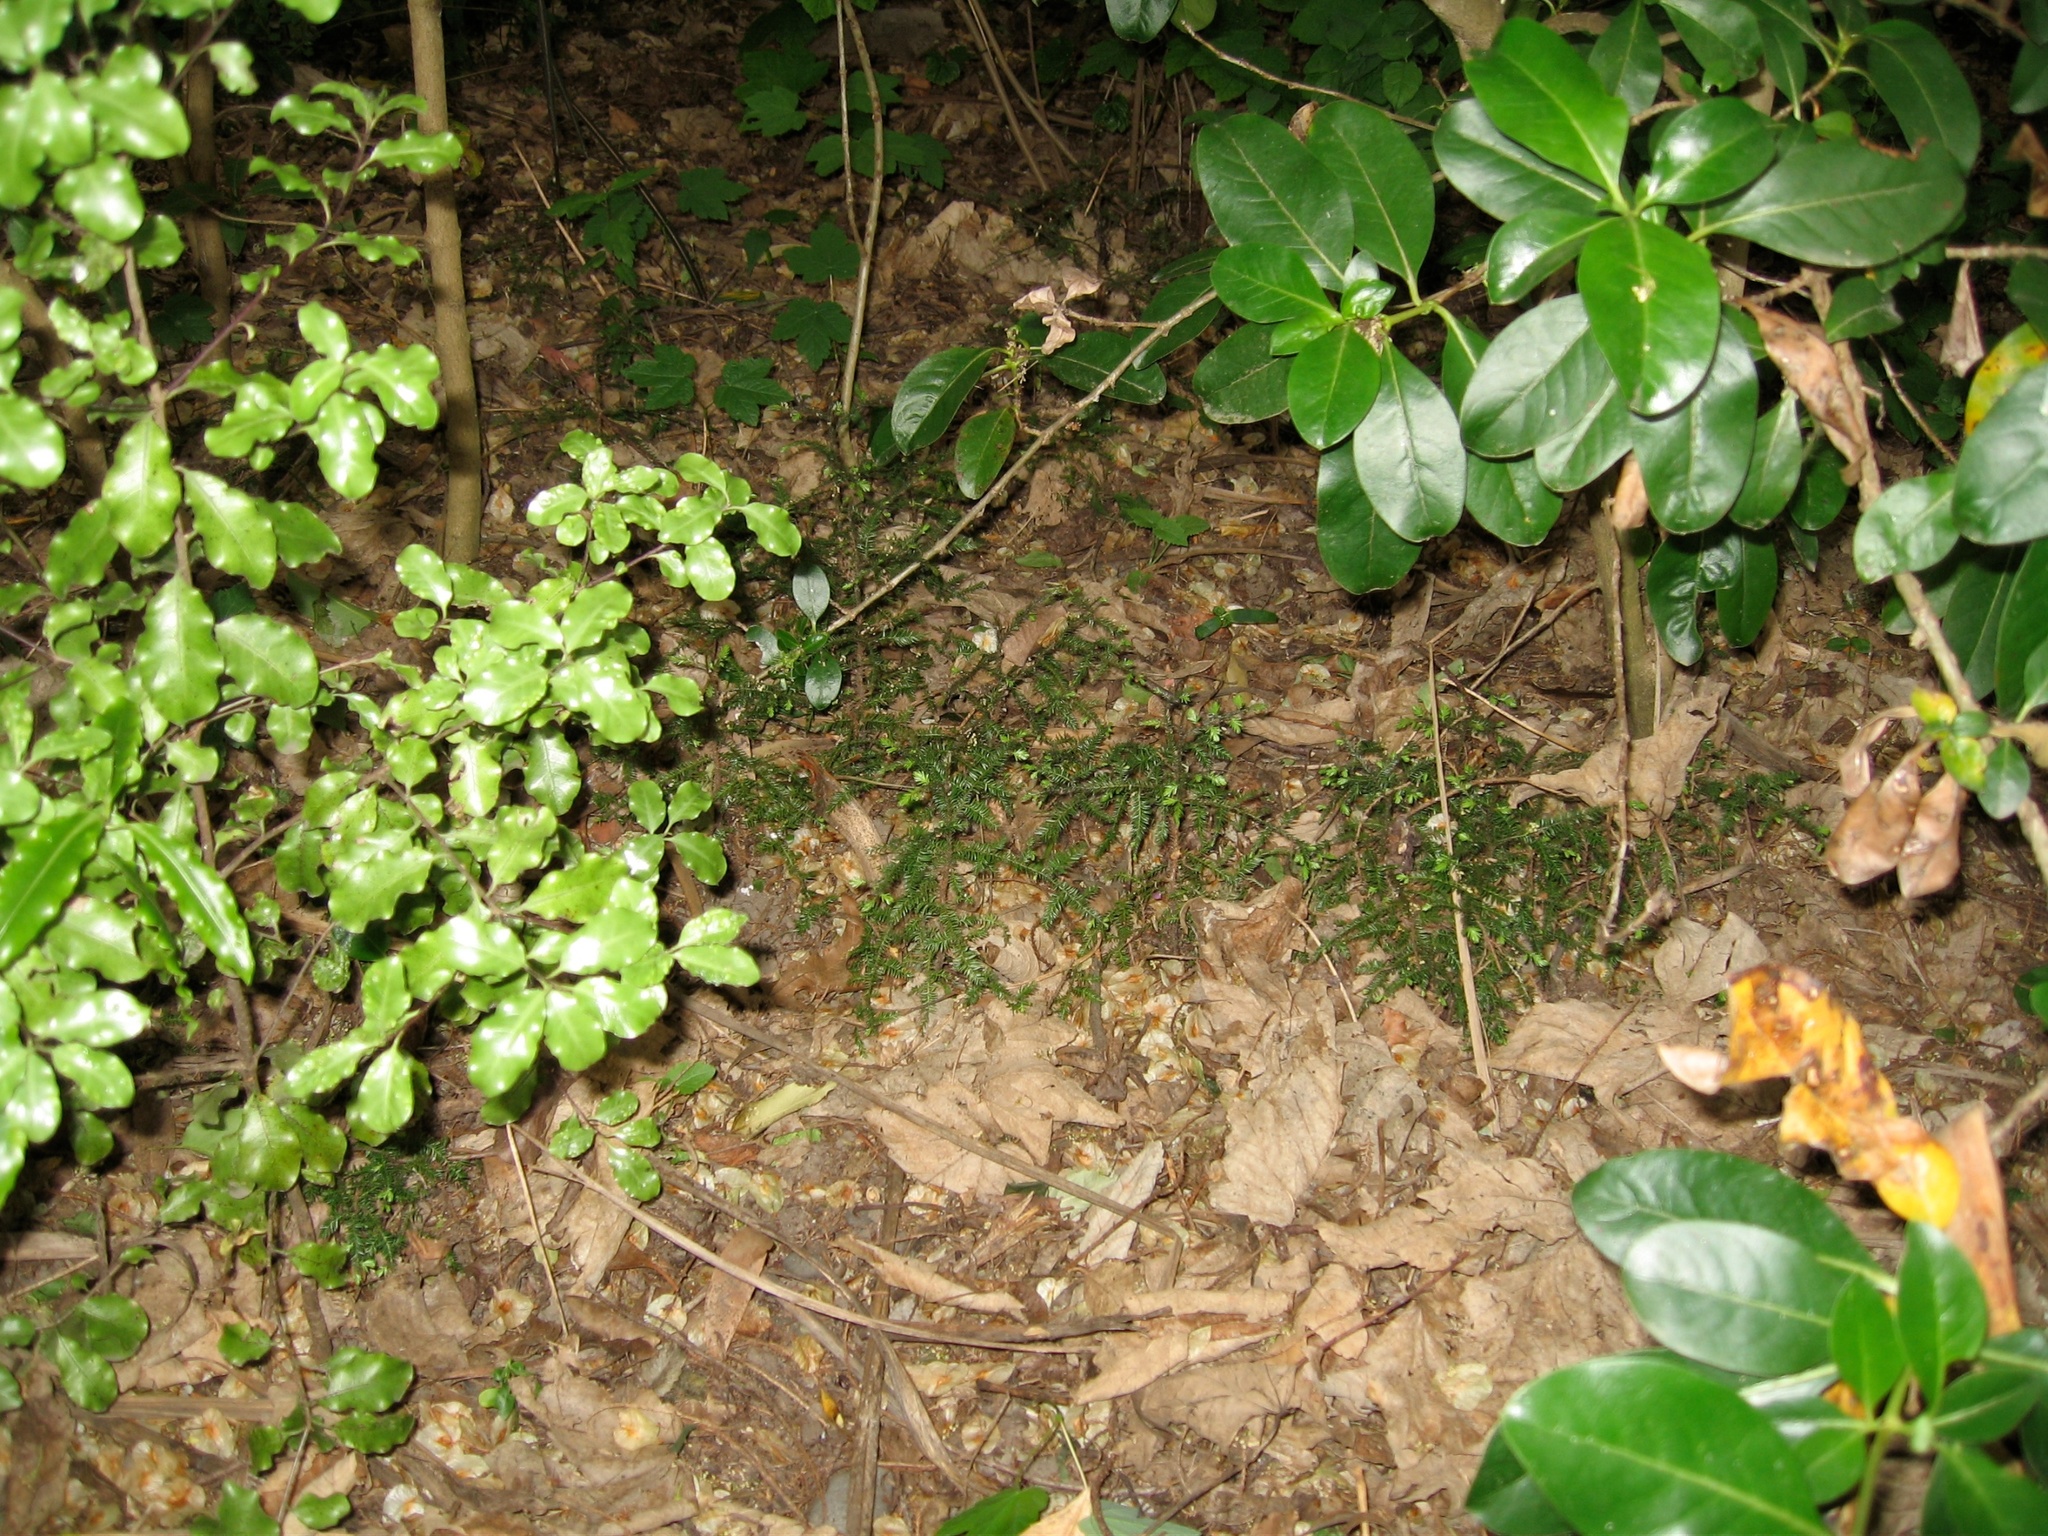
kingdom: Plantae
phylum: Tracheophyta
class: Pinopsida
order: Pinales
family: Podocarpaceae
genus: Dacrycarpus
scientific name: Dacrycarpus dacrydioides
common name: White pine
